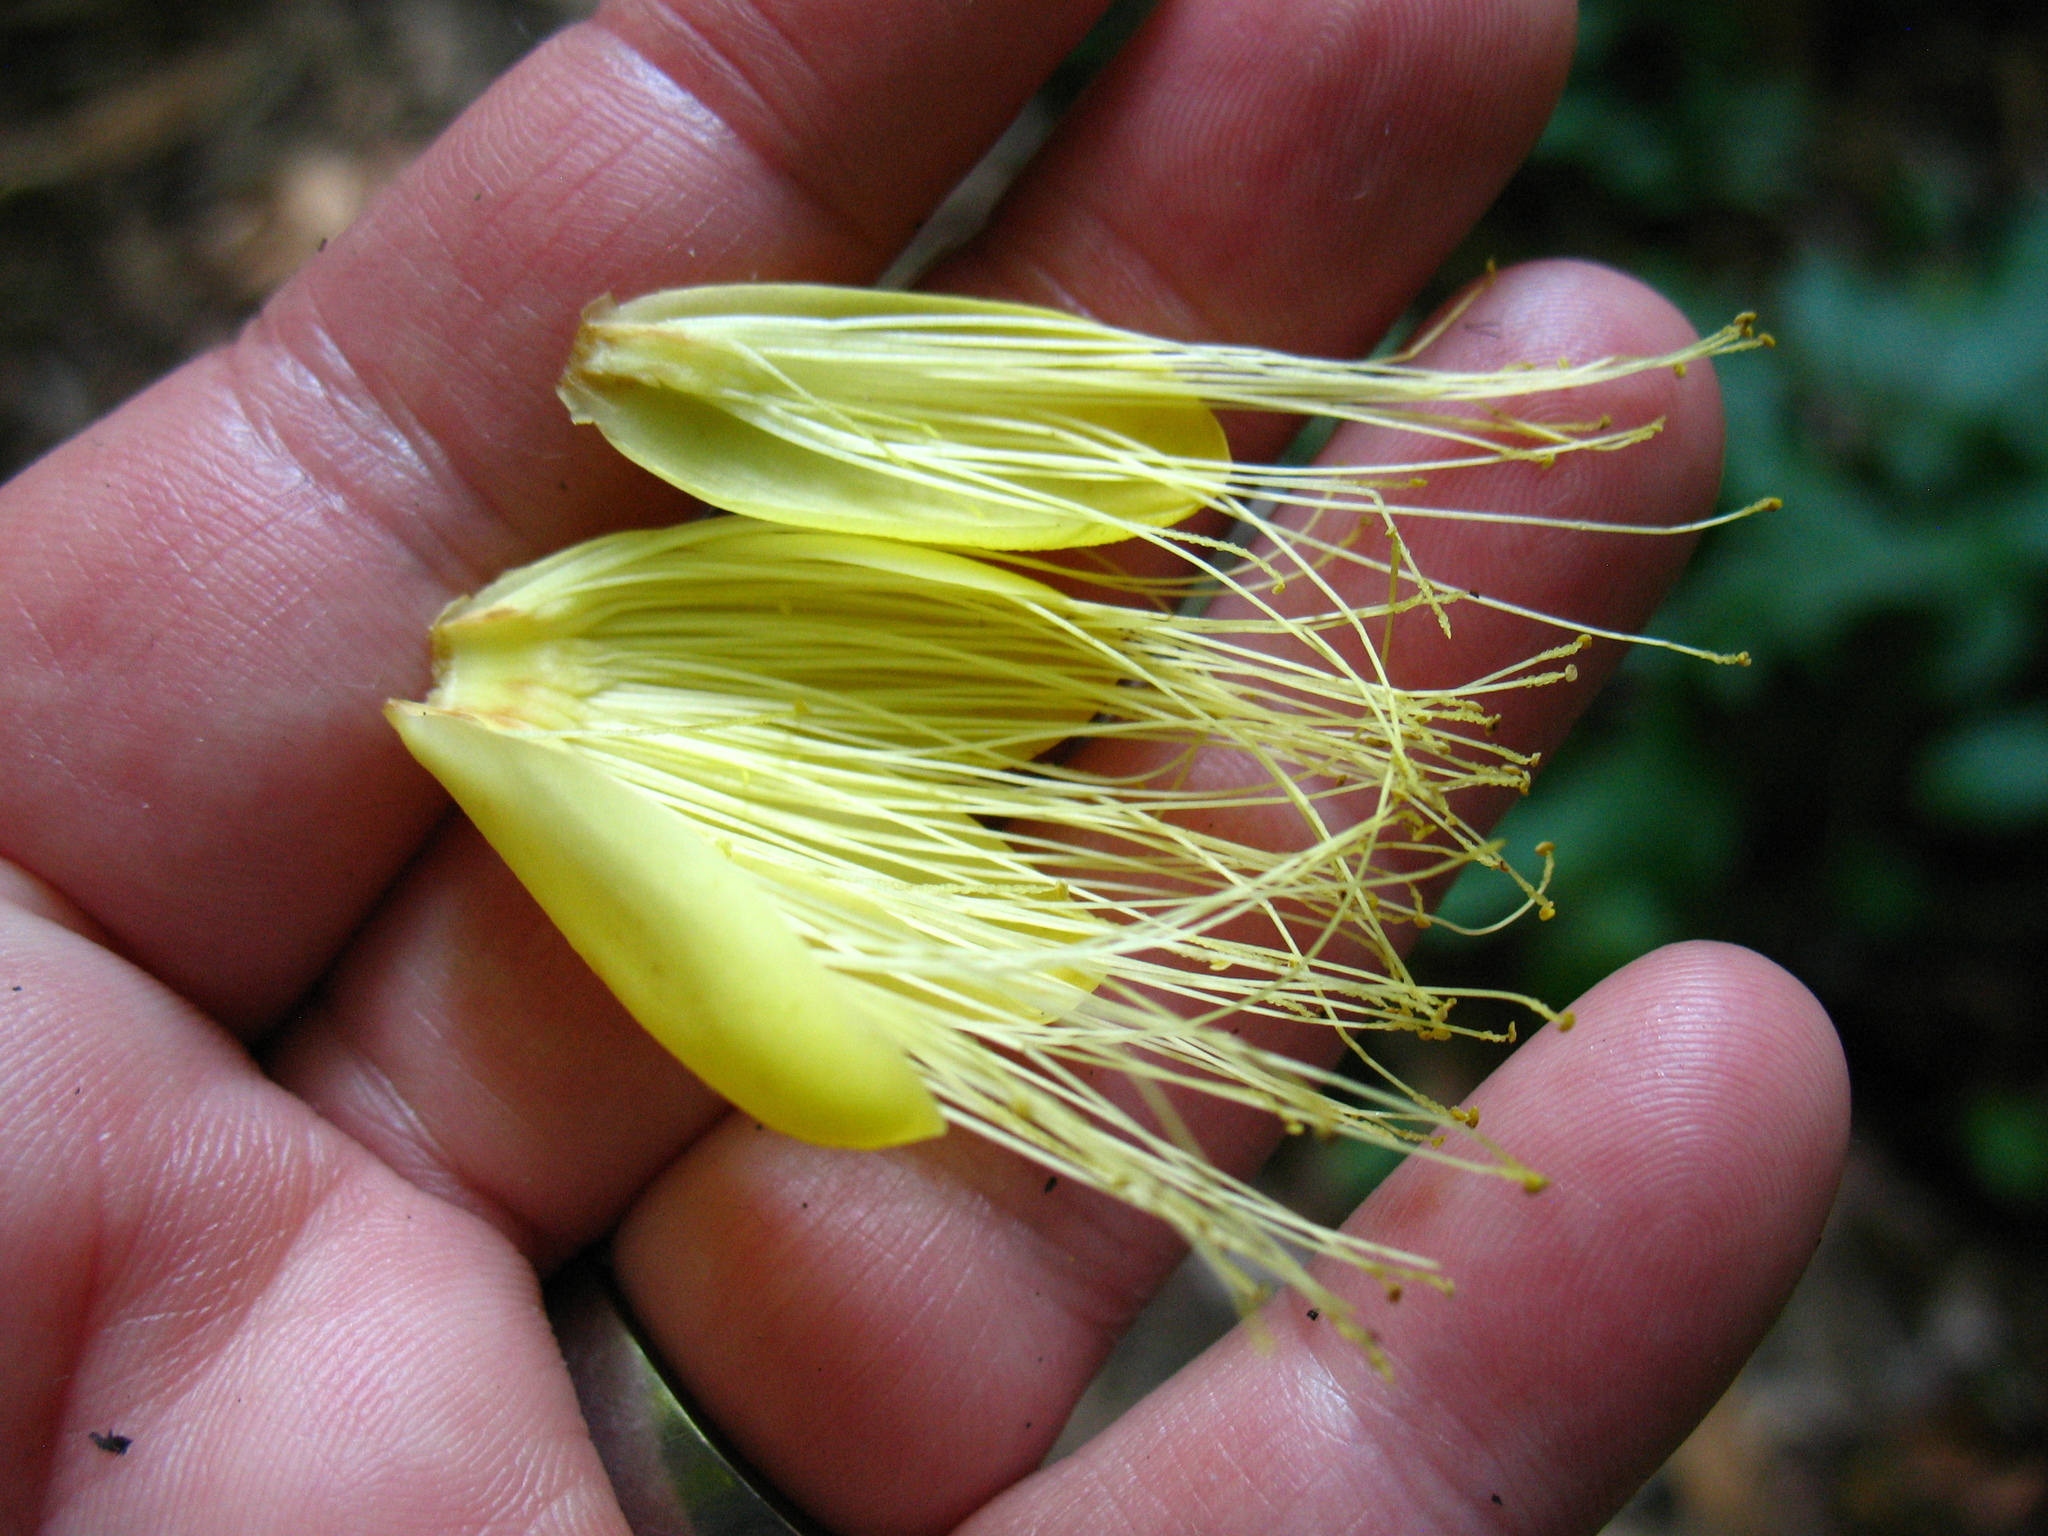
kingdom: Plantae
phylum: Tracheophyta
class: Magnoliopsida
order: Malpighiales
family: Caryocaraceae
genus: Caryocar
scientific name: Caryocar costaricense
